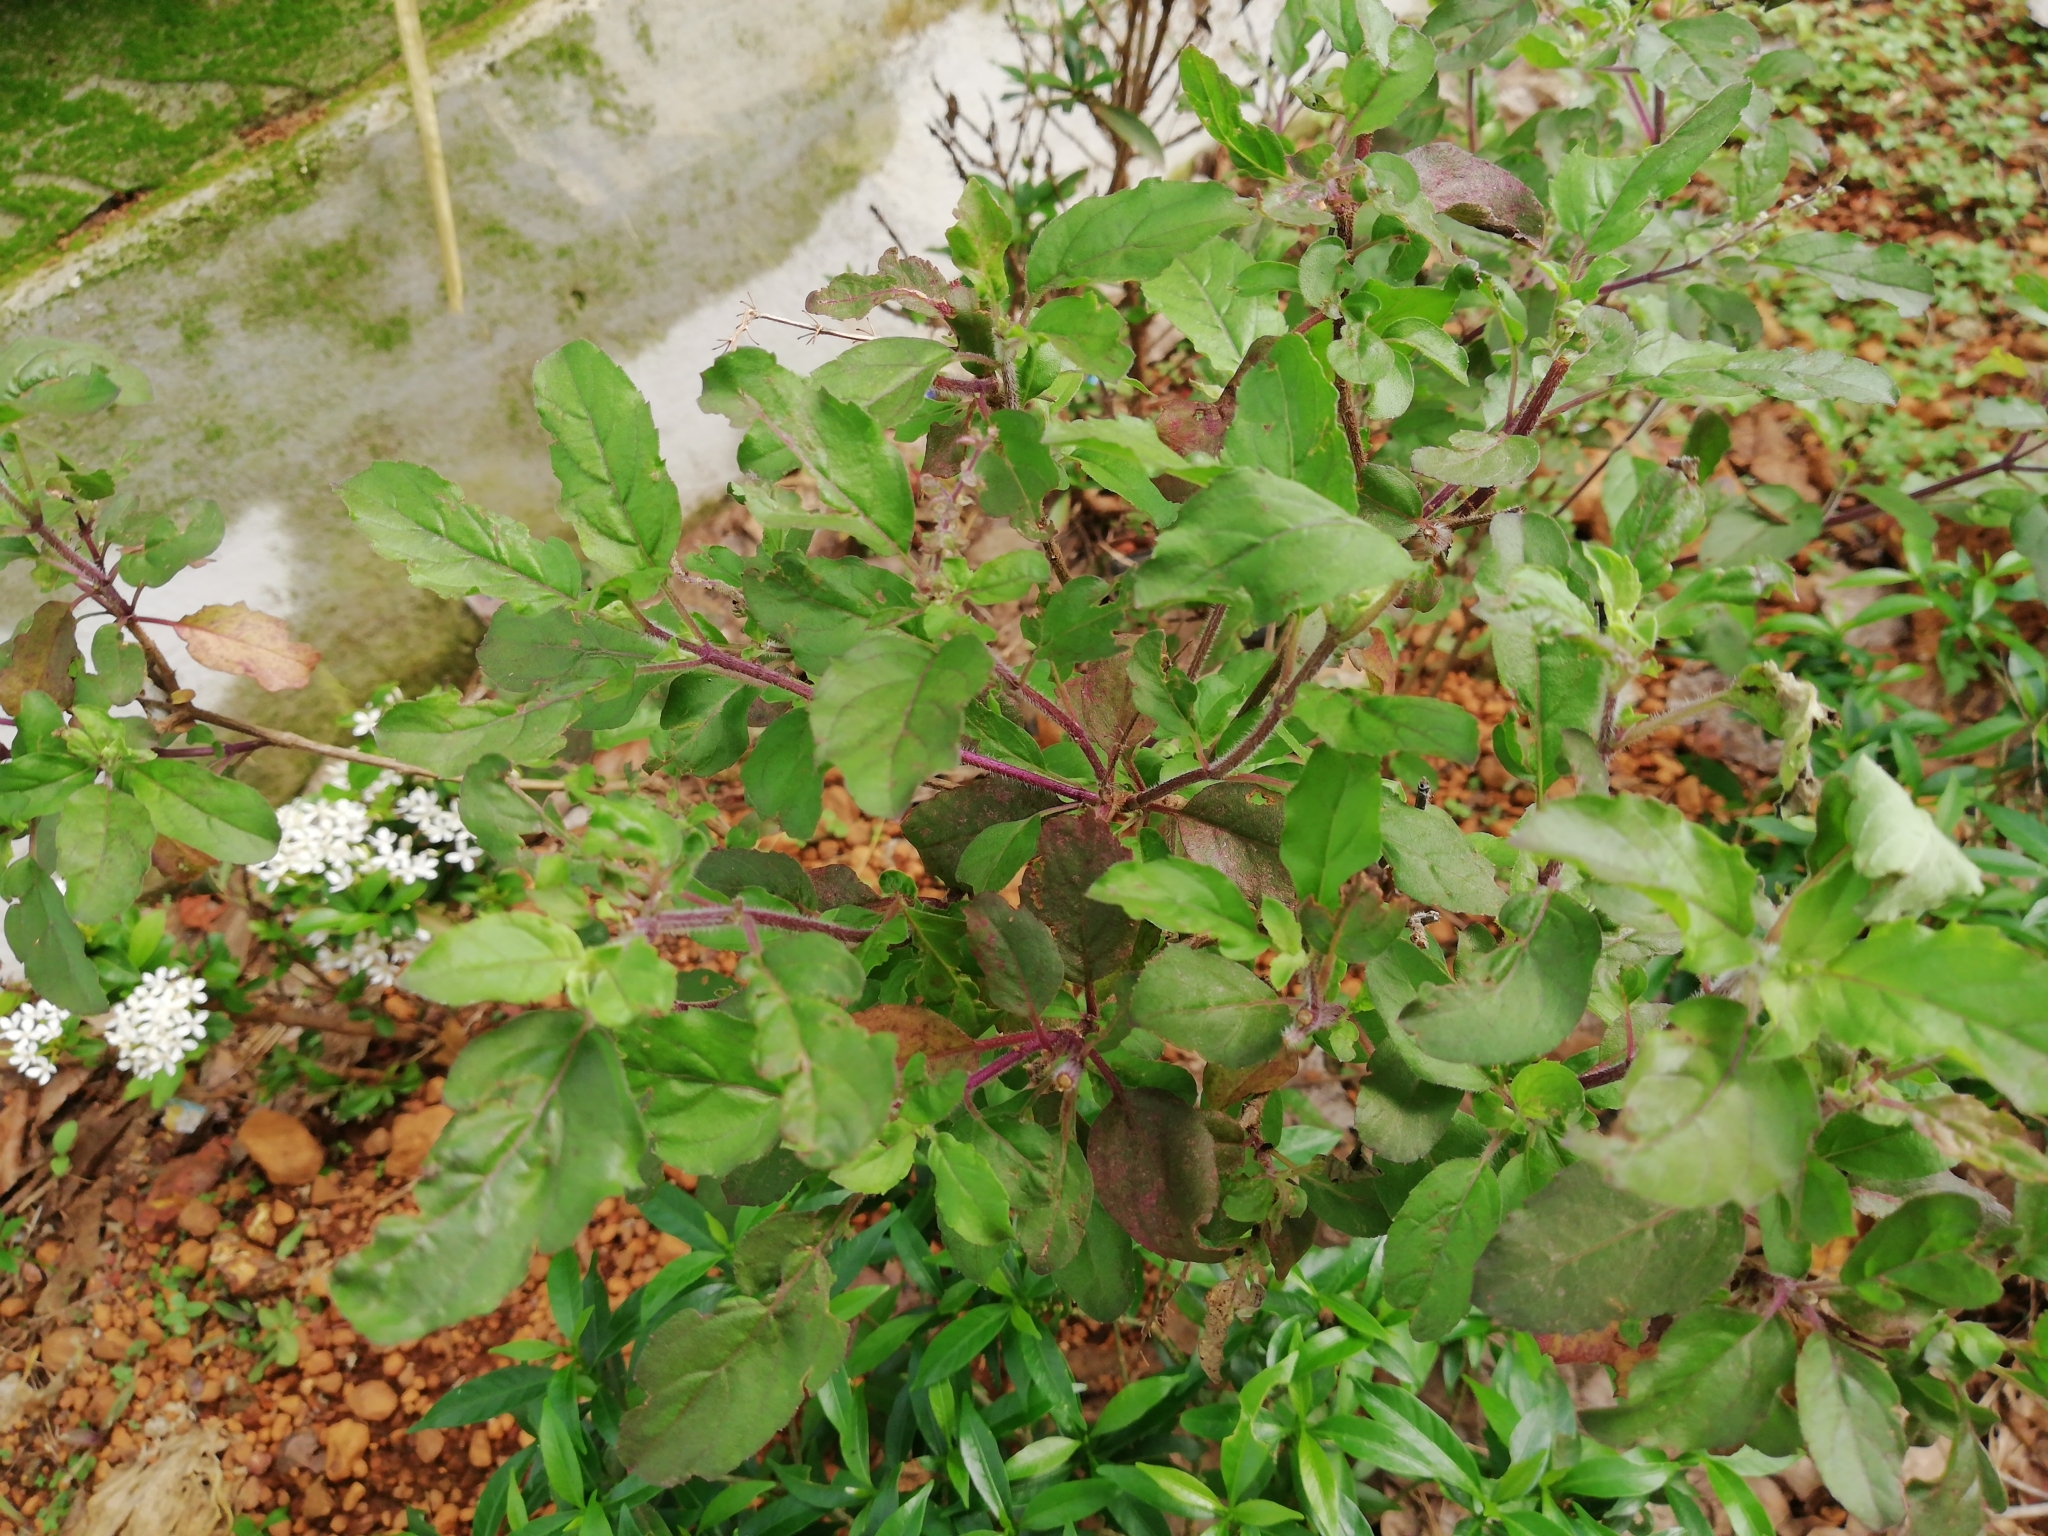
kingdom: Plantae
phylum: Tracheophyta
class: Magnoliopsida
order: Lamiales
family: Lamiaceae
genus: Ocimum
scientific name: Ocimum tenuiflorum
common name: Sacred basil
